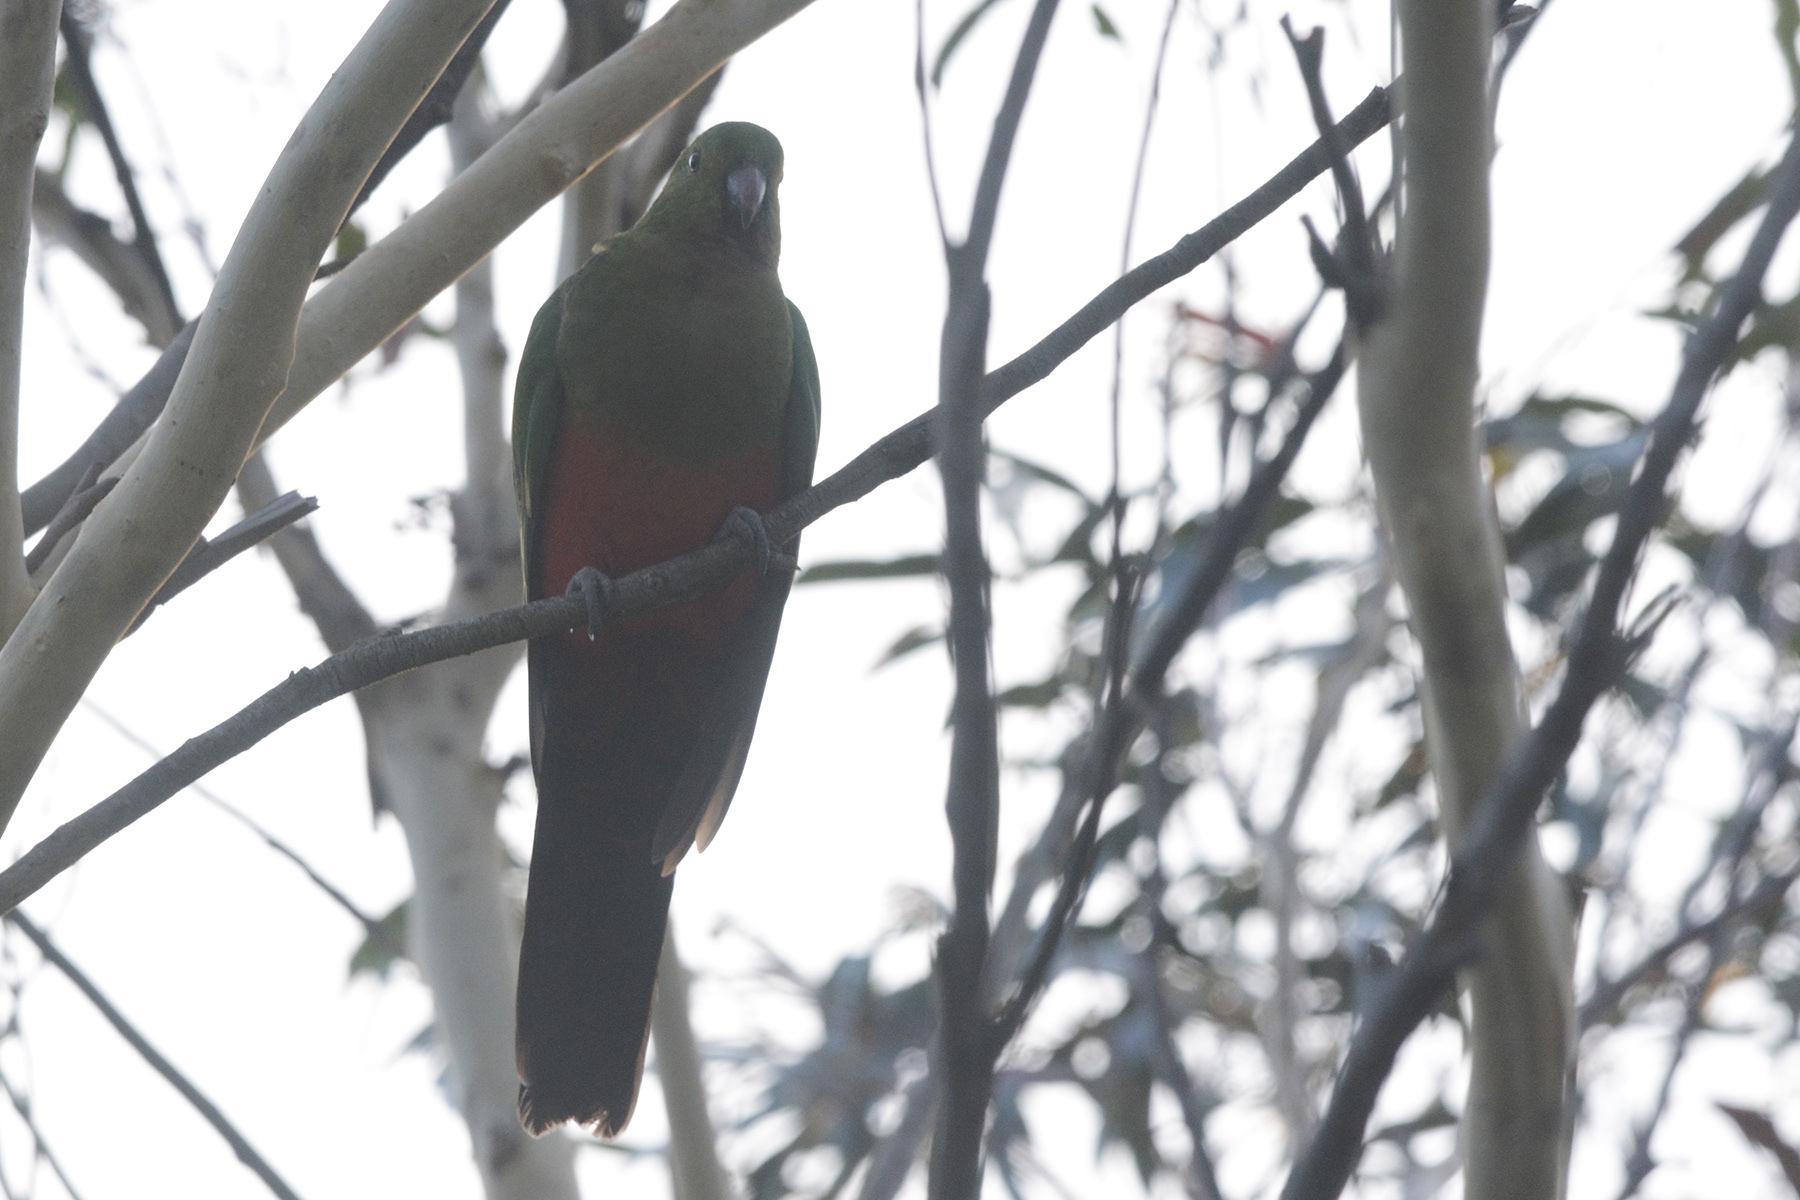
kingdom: Animalia
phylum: Chordata
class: Aves
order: Psittaciformes
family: Psittacidae
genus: Alisterus
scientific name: Alisterus scapularis
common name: Australian king parrot
